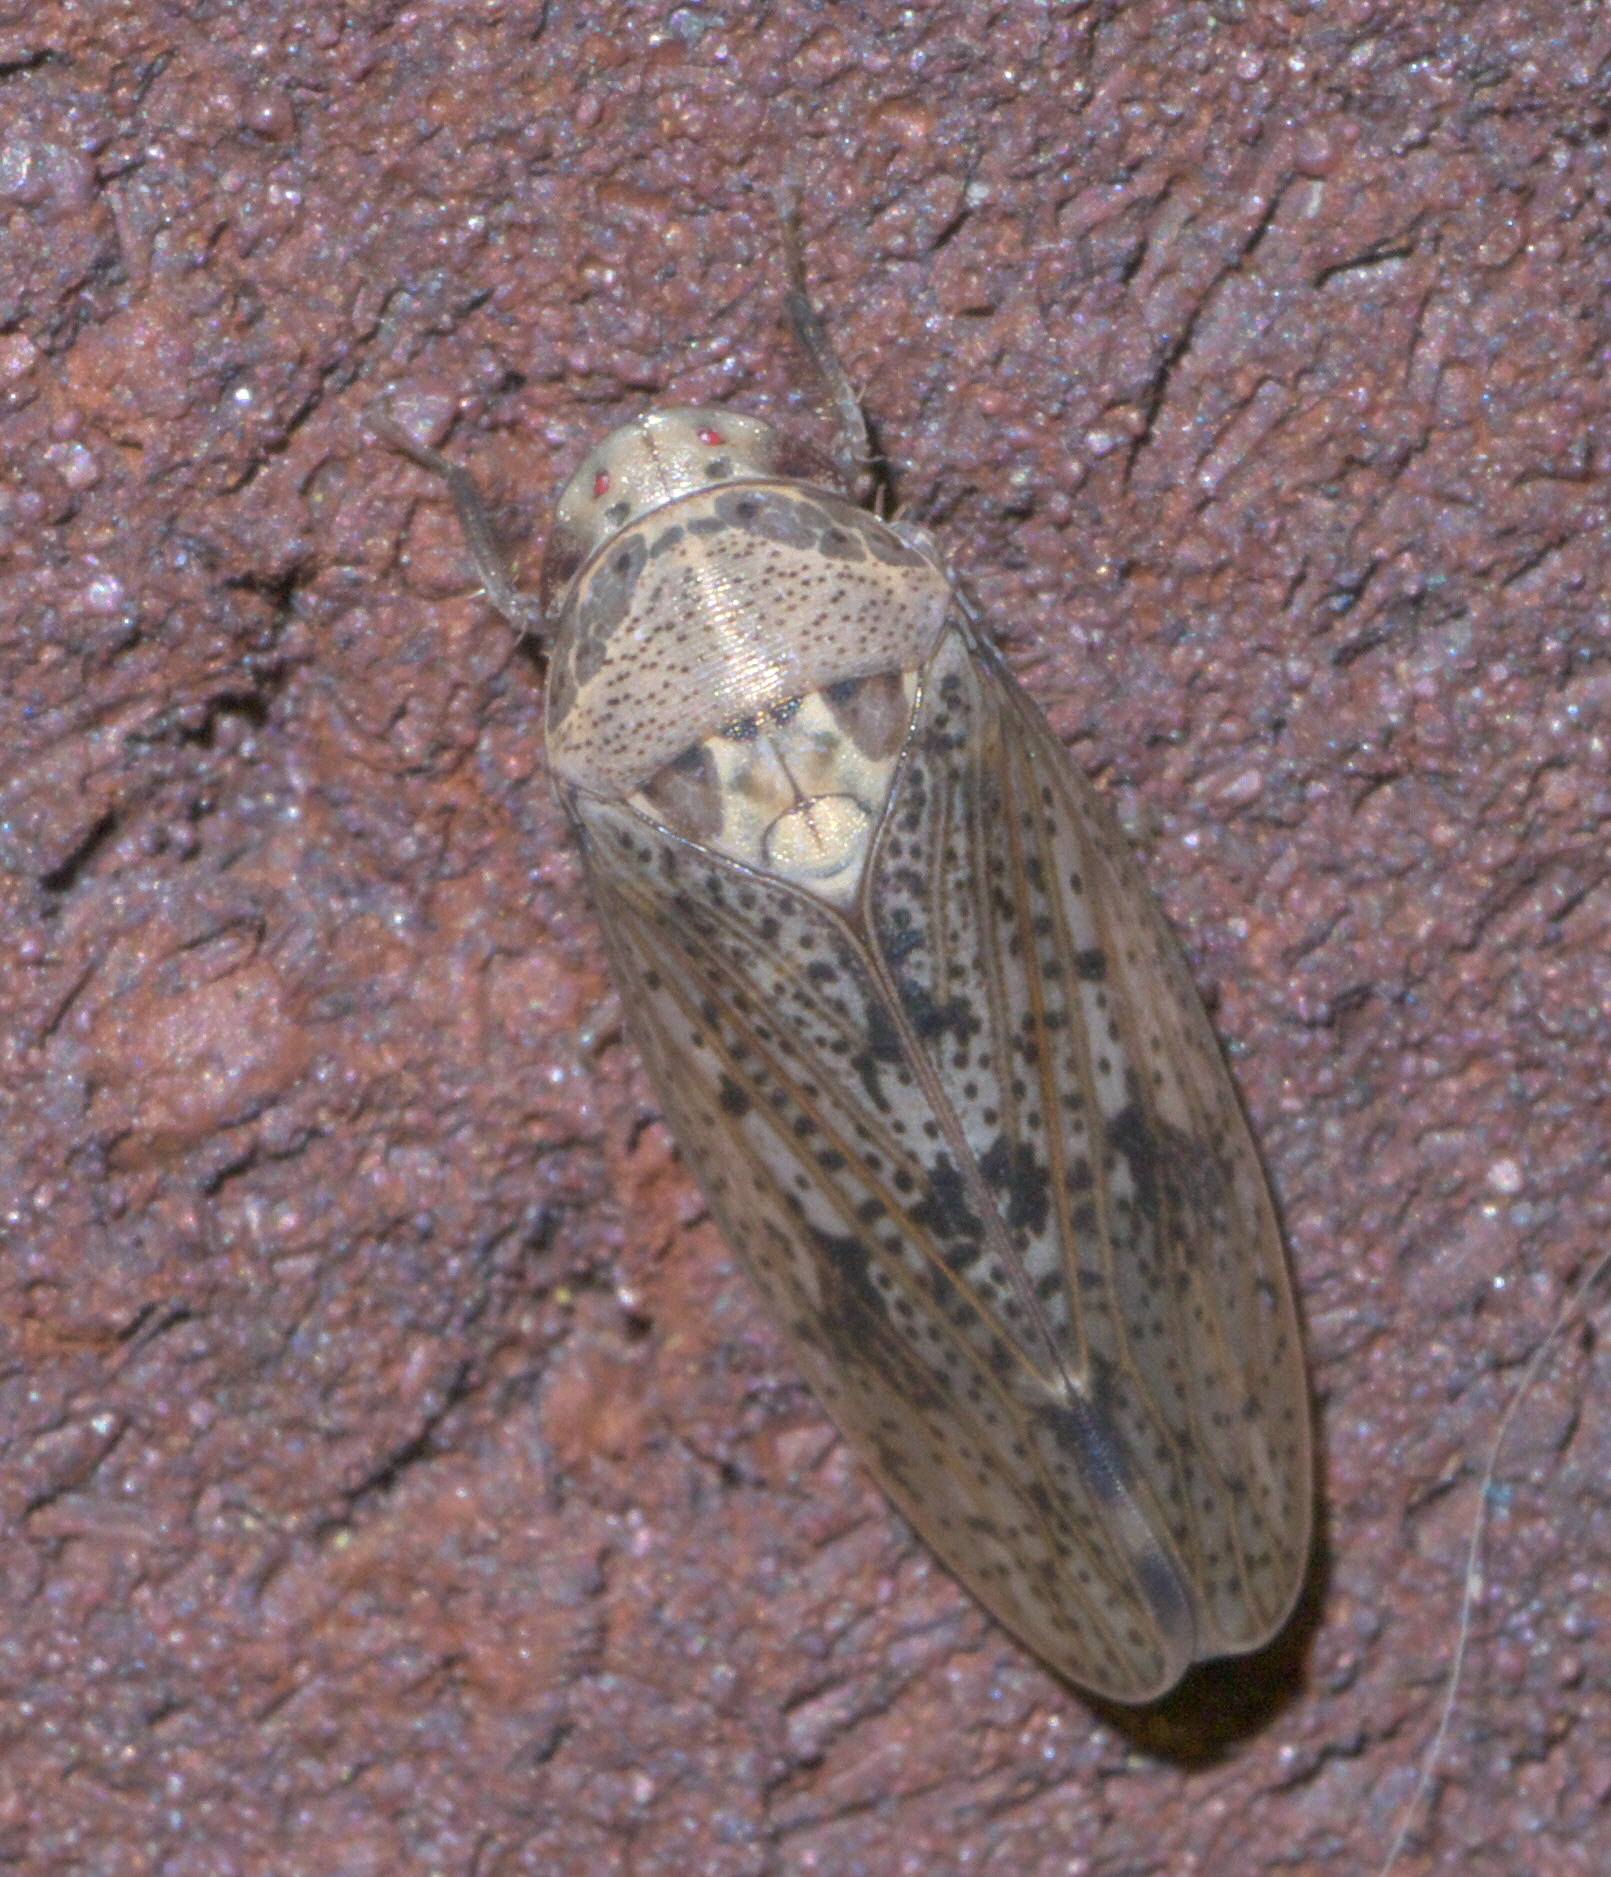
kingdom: Animalia
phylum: Arthropoda
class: Insecta
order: Hemiptera
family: Cicadellidae
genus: Ponana
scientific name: Ponana puncticollis
